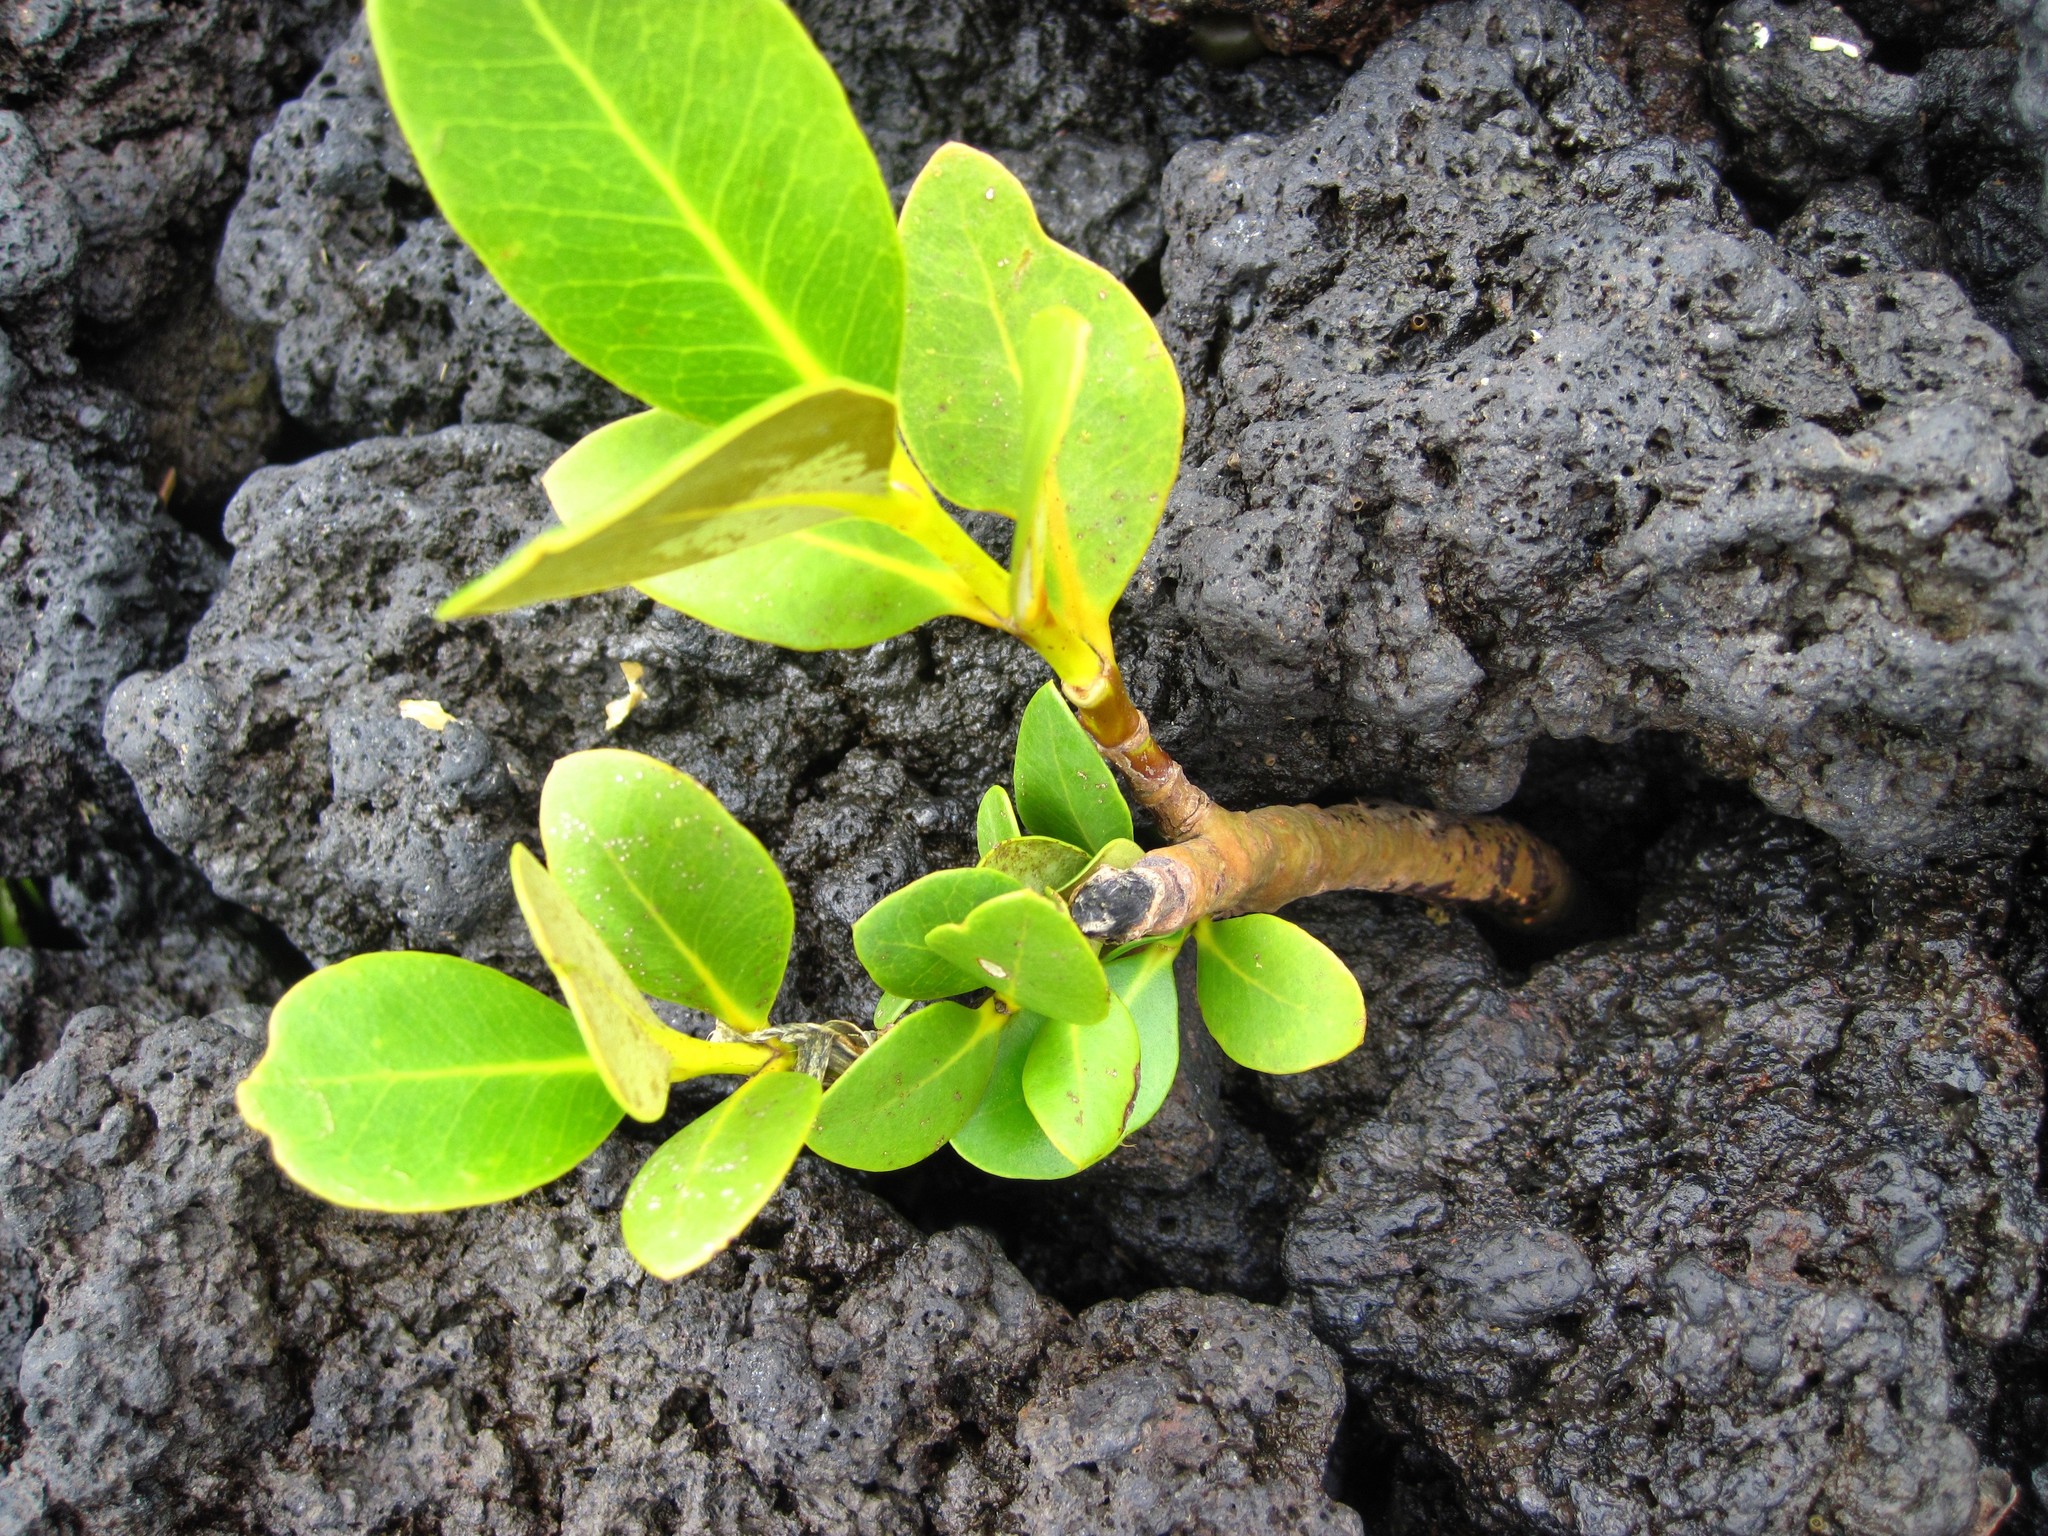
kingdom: Plantae
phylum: Tracheophyta
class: Magnoliopsida
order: Lamiales
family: Acanthaceae
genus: Avicennia
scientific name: Avicennia marina
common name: Gray mangrove
